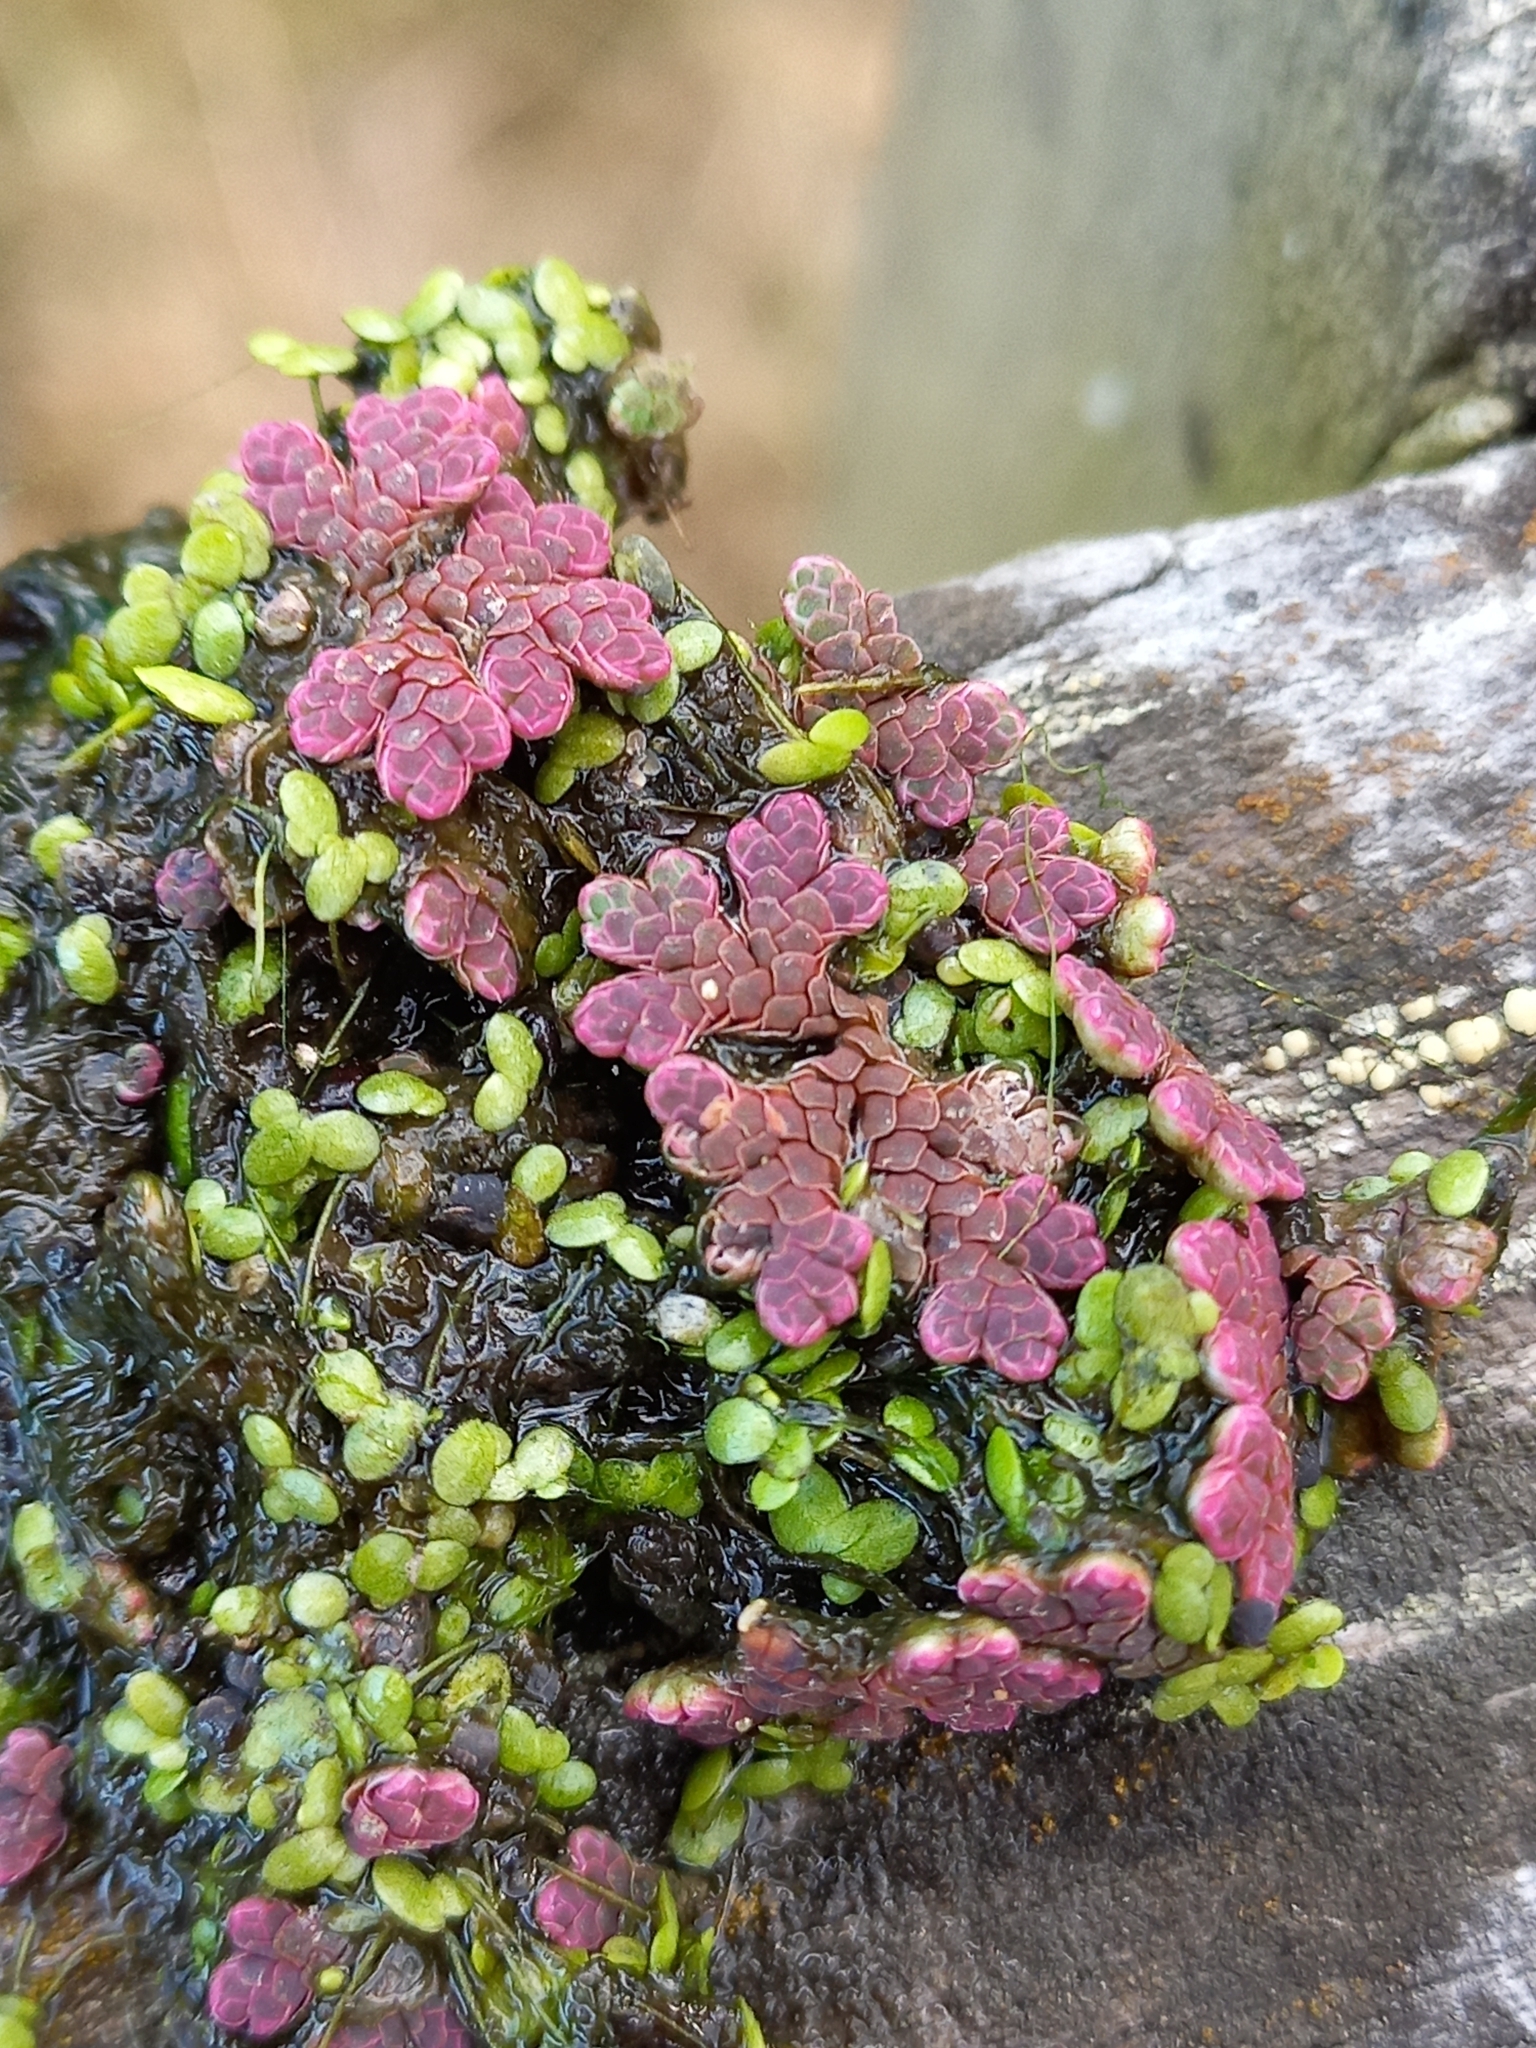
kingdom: Plantae
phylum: Tracheophyta
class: Polypodiopsida
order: Salviniales
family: Salviniaceae
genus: Azolla
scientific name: Azolla rubra
